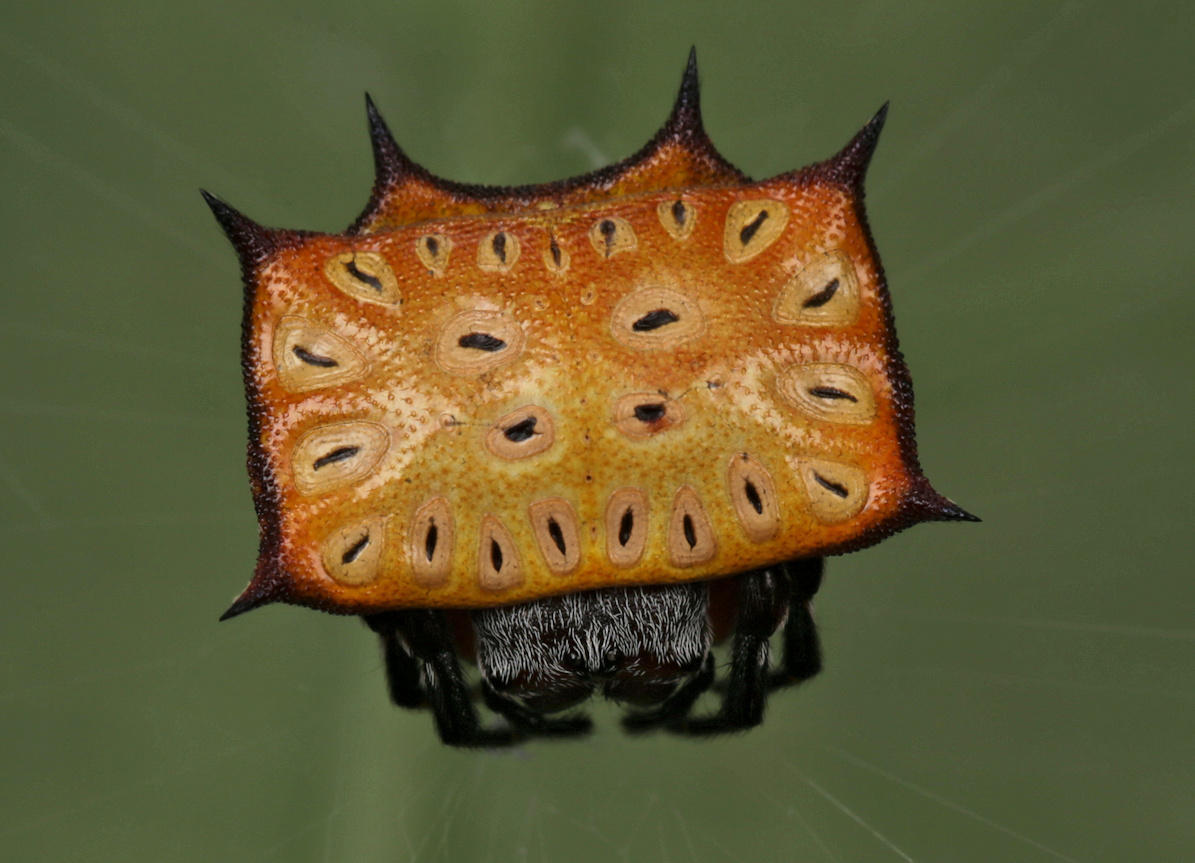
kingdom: Animalia
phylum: Arthropoda
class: Arachnida
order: Araneae
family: Araneidae
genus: Isoxya
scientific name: Isoxya tabulata
